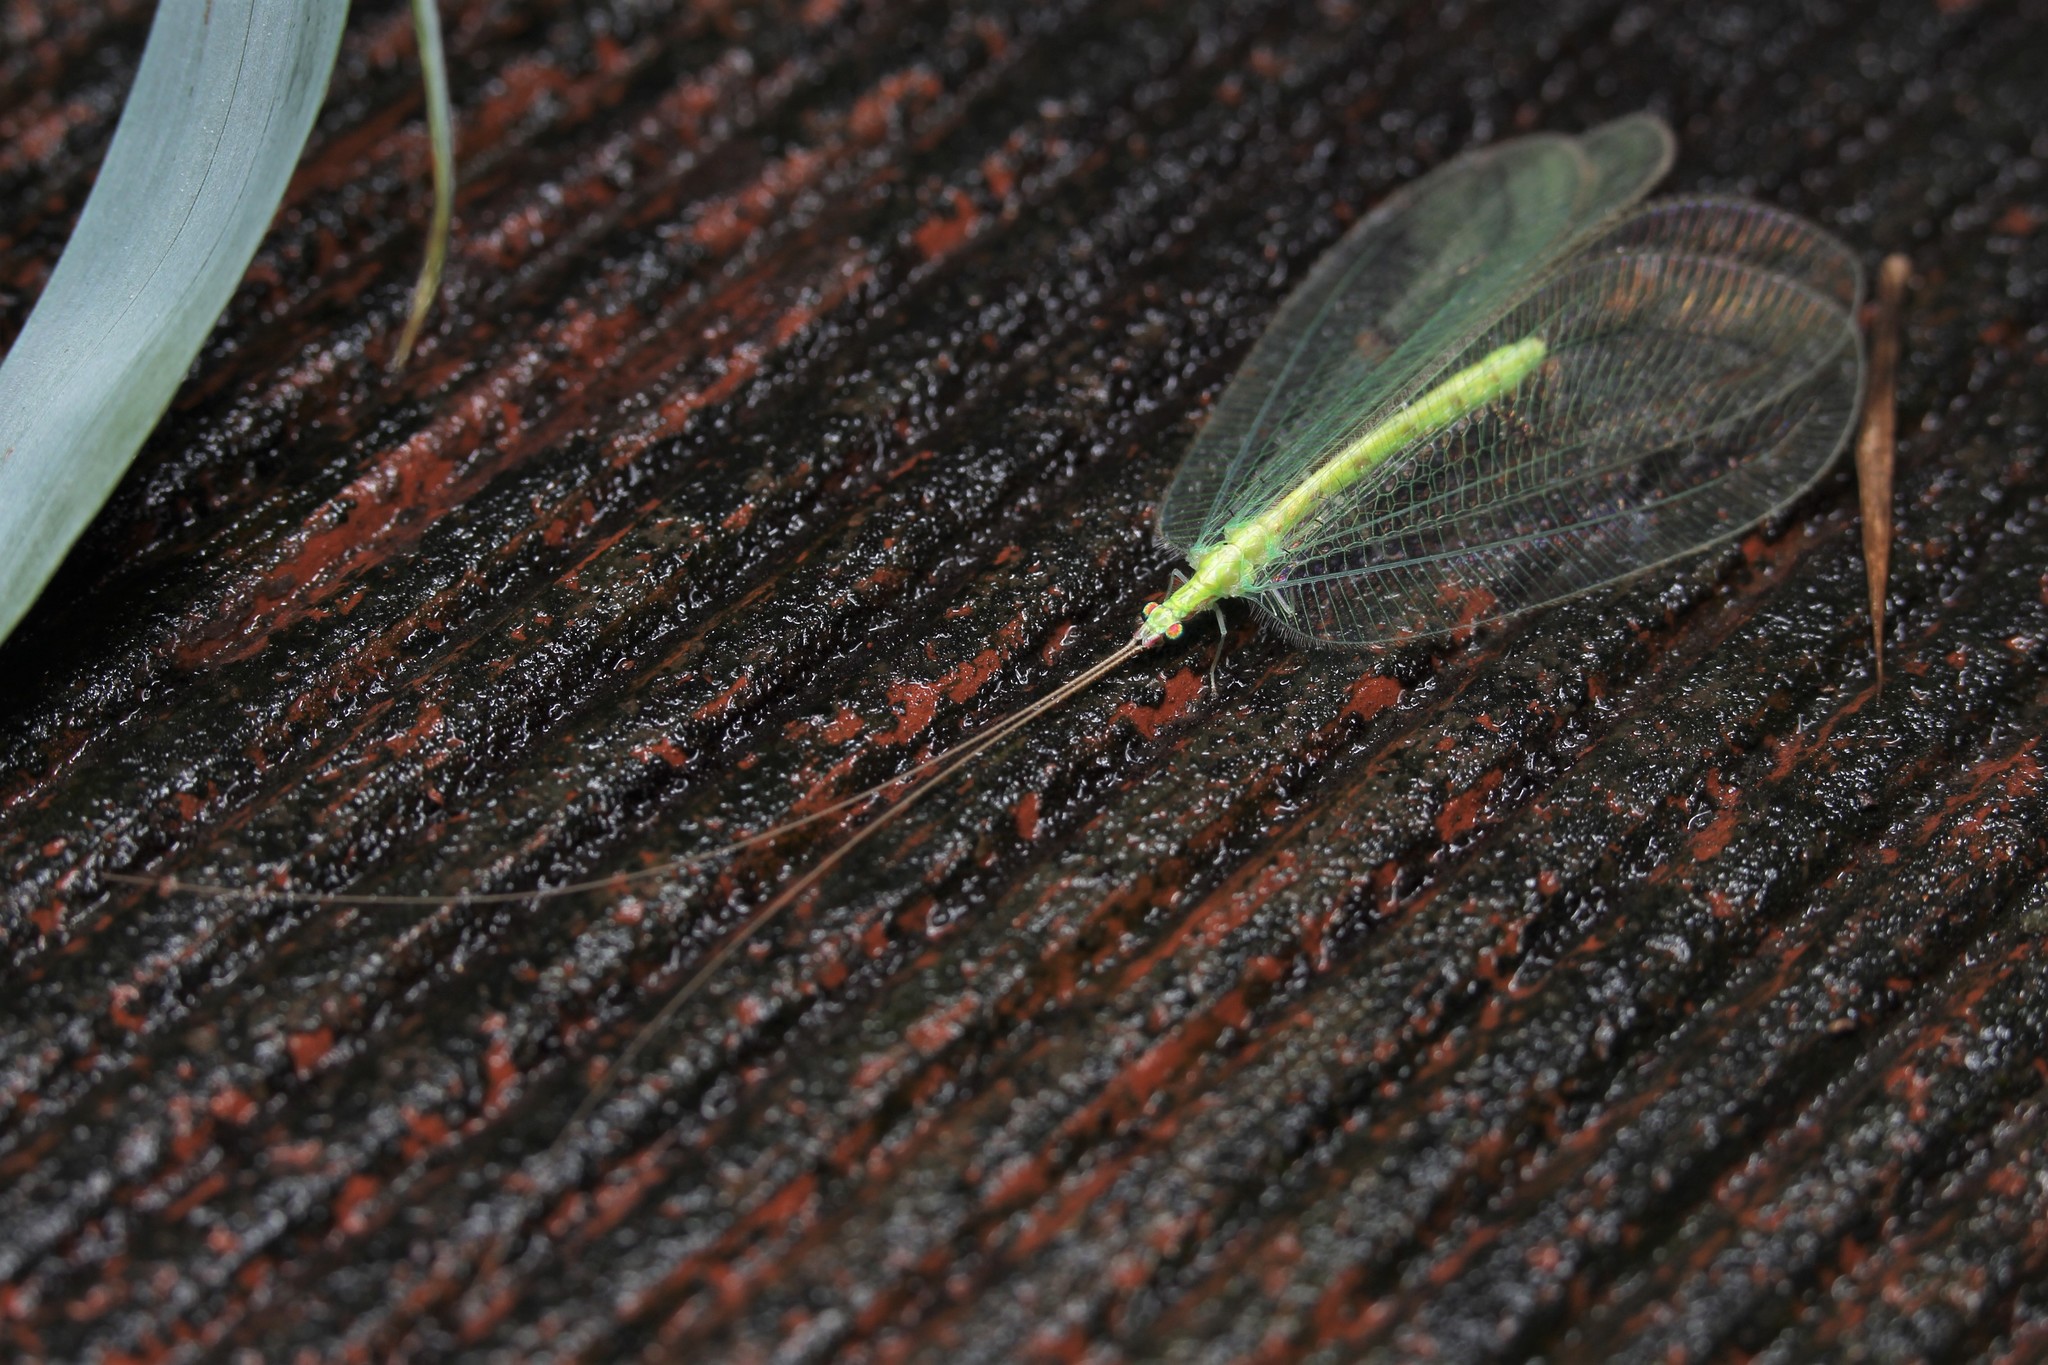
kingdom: Animalia
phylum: Arthropoda
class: Insecta
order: Neuroptera
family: Chrysopidae
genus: Apochrysa
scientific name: Apochrysa matsumurae
